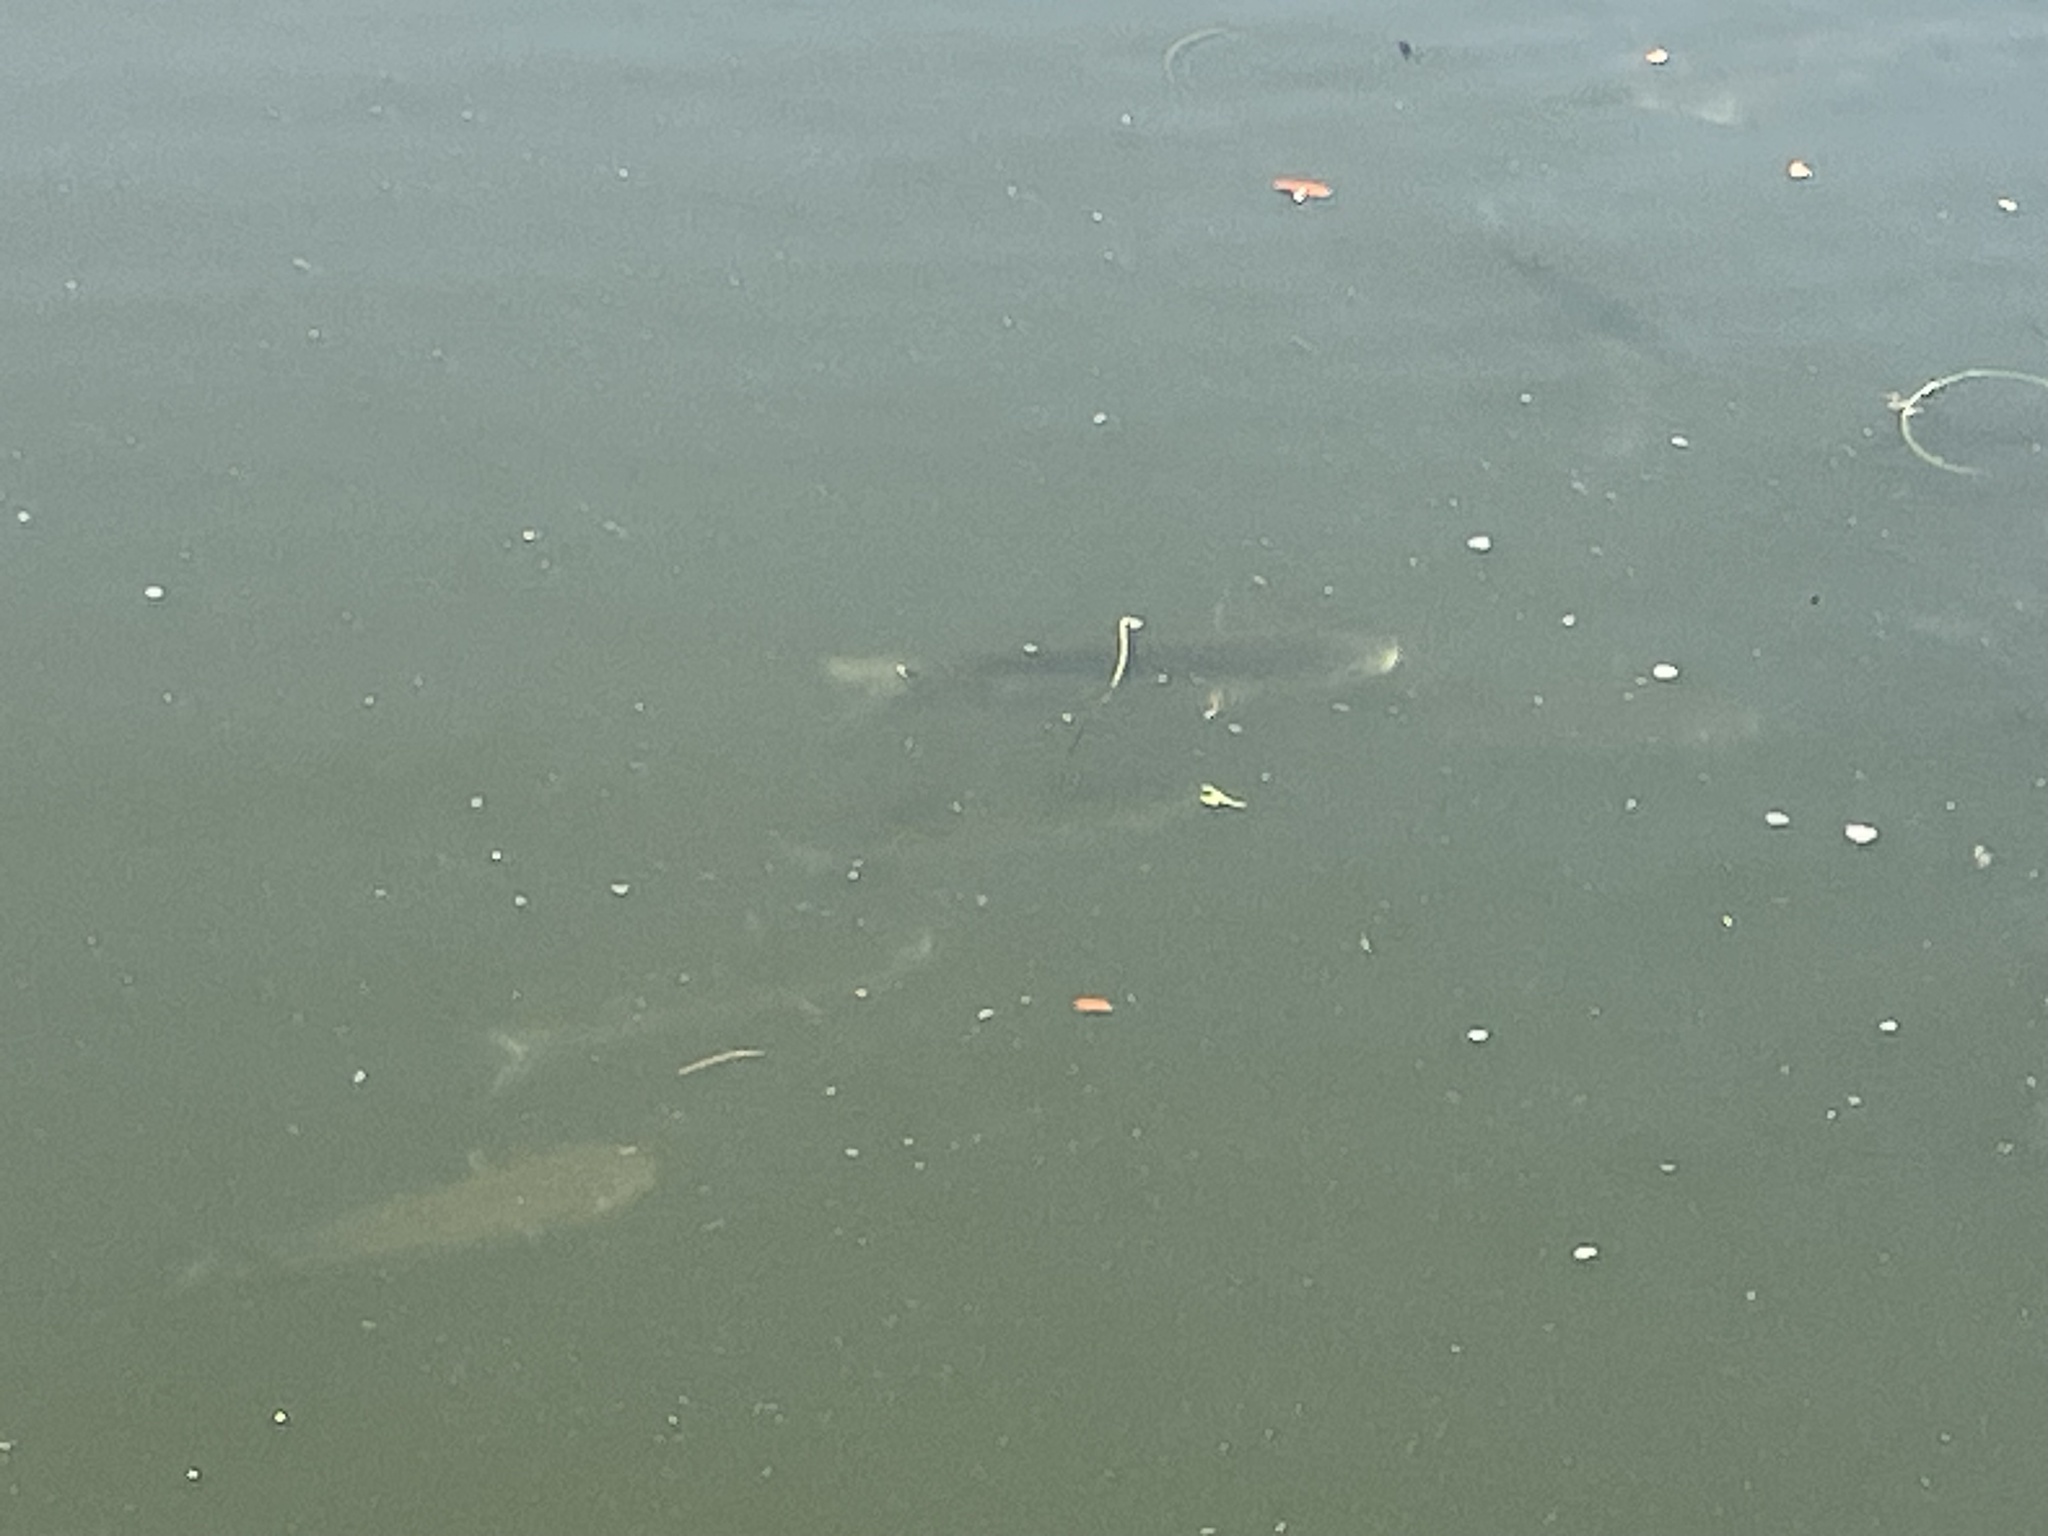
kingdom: Animalia
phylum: Chordata
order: Mugiliformes
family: Mugilidae
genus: Mugil
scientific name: Mugil cephalus
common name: Grey mullet
